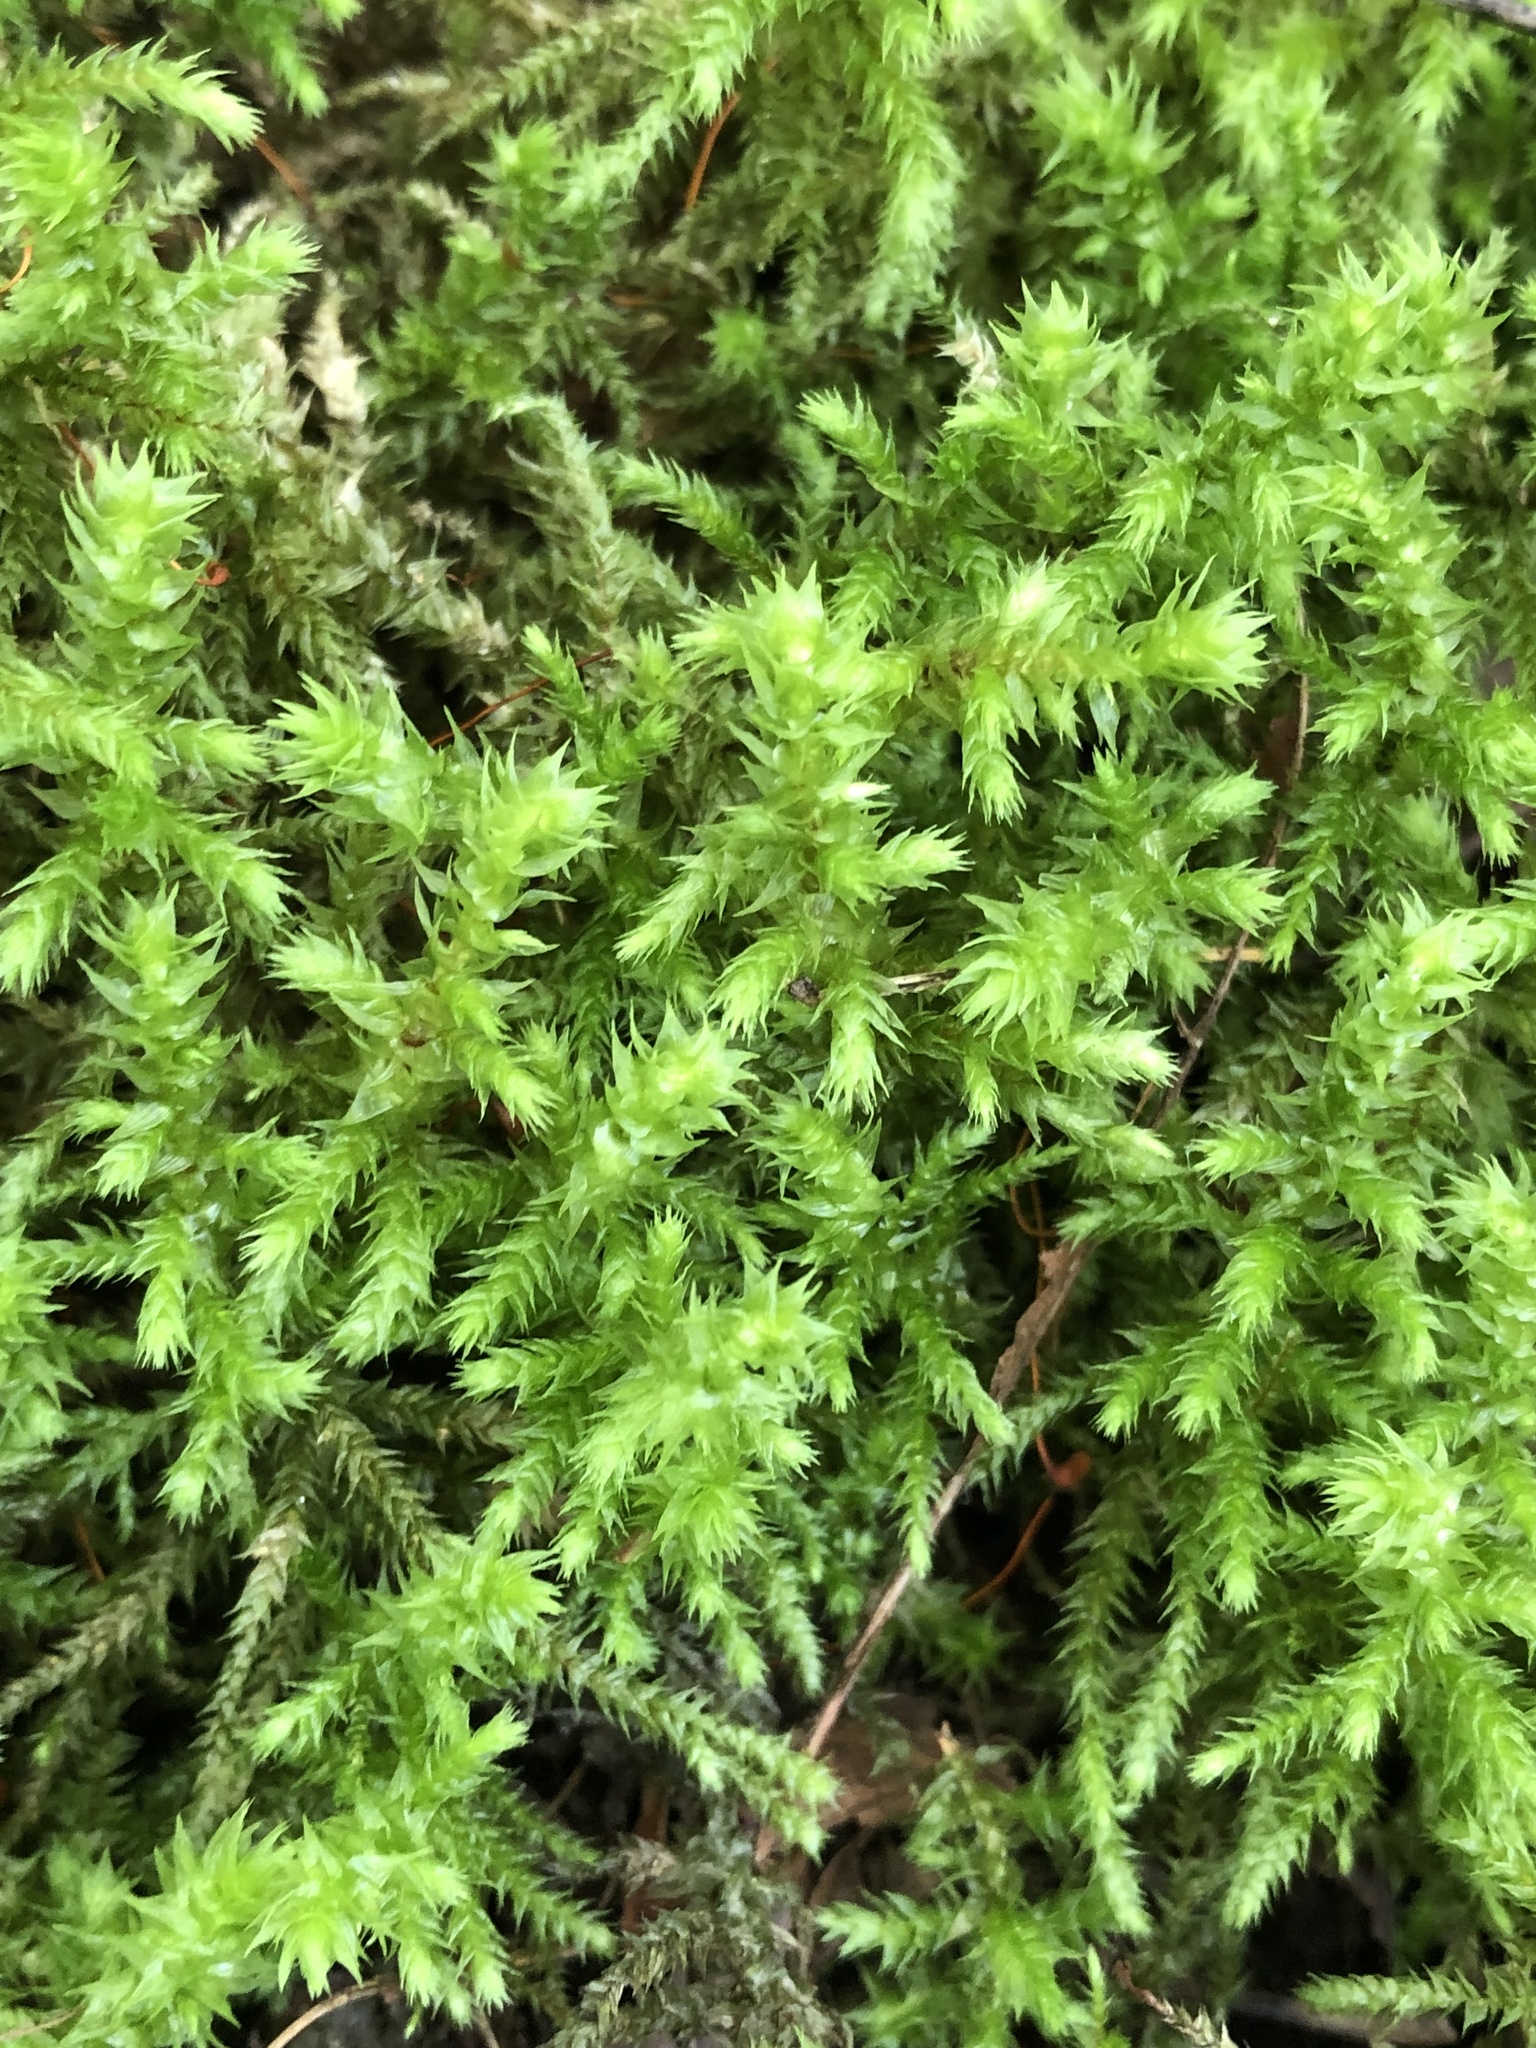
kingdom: Plantae
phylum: Bryophyta
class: Bryopsida
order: Hypnales
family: Hylocomiaceae
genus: Hylocomiadelphus
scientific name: Hylocomiadelphus triquetrus
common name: Rough goose neck moss
